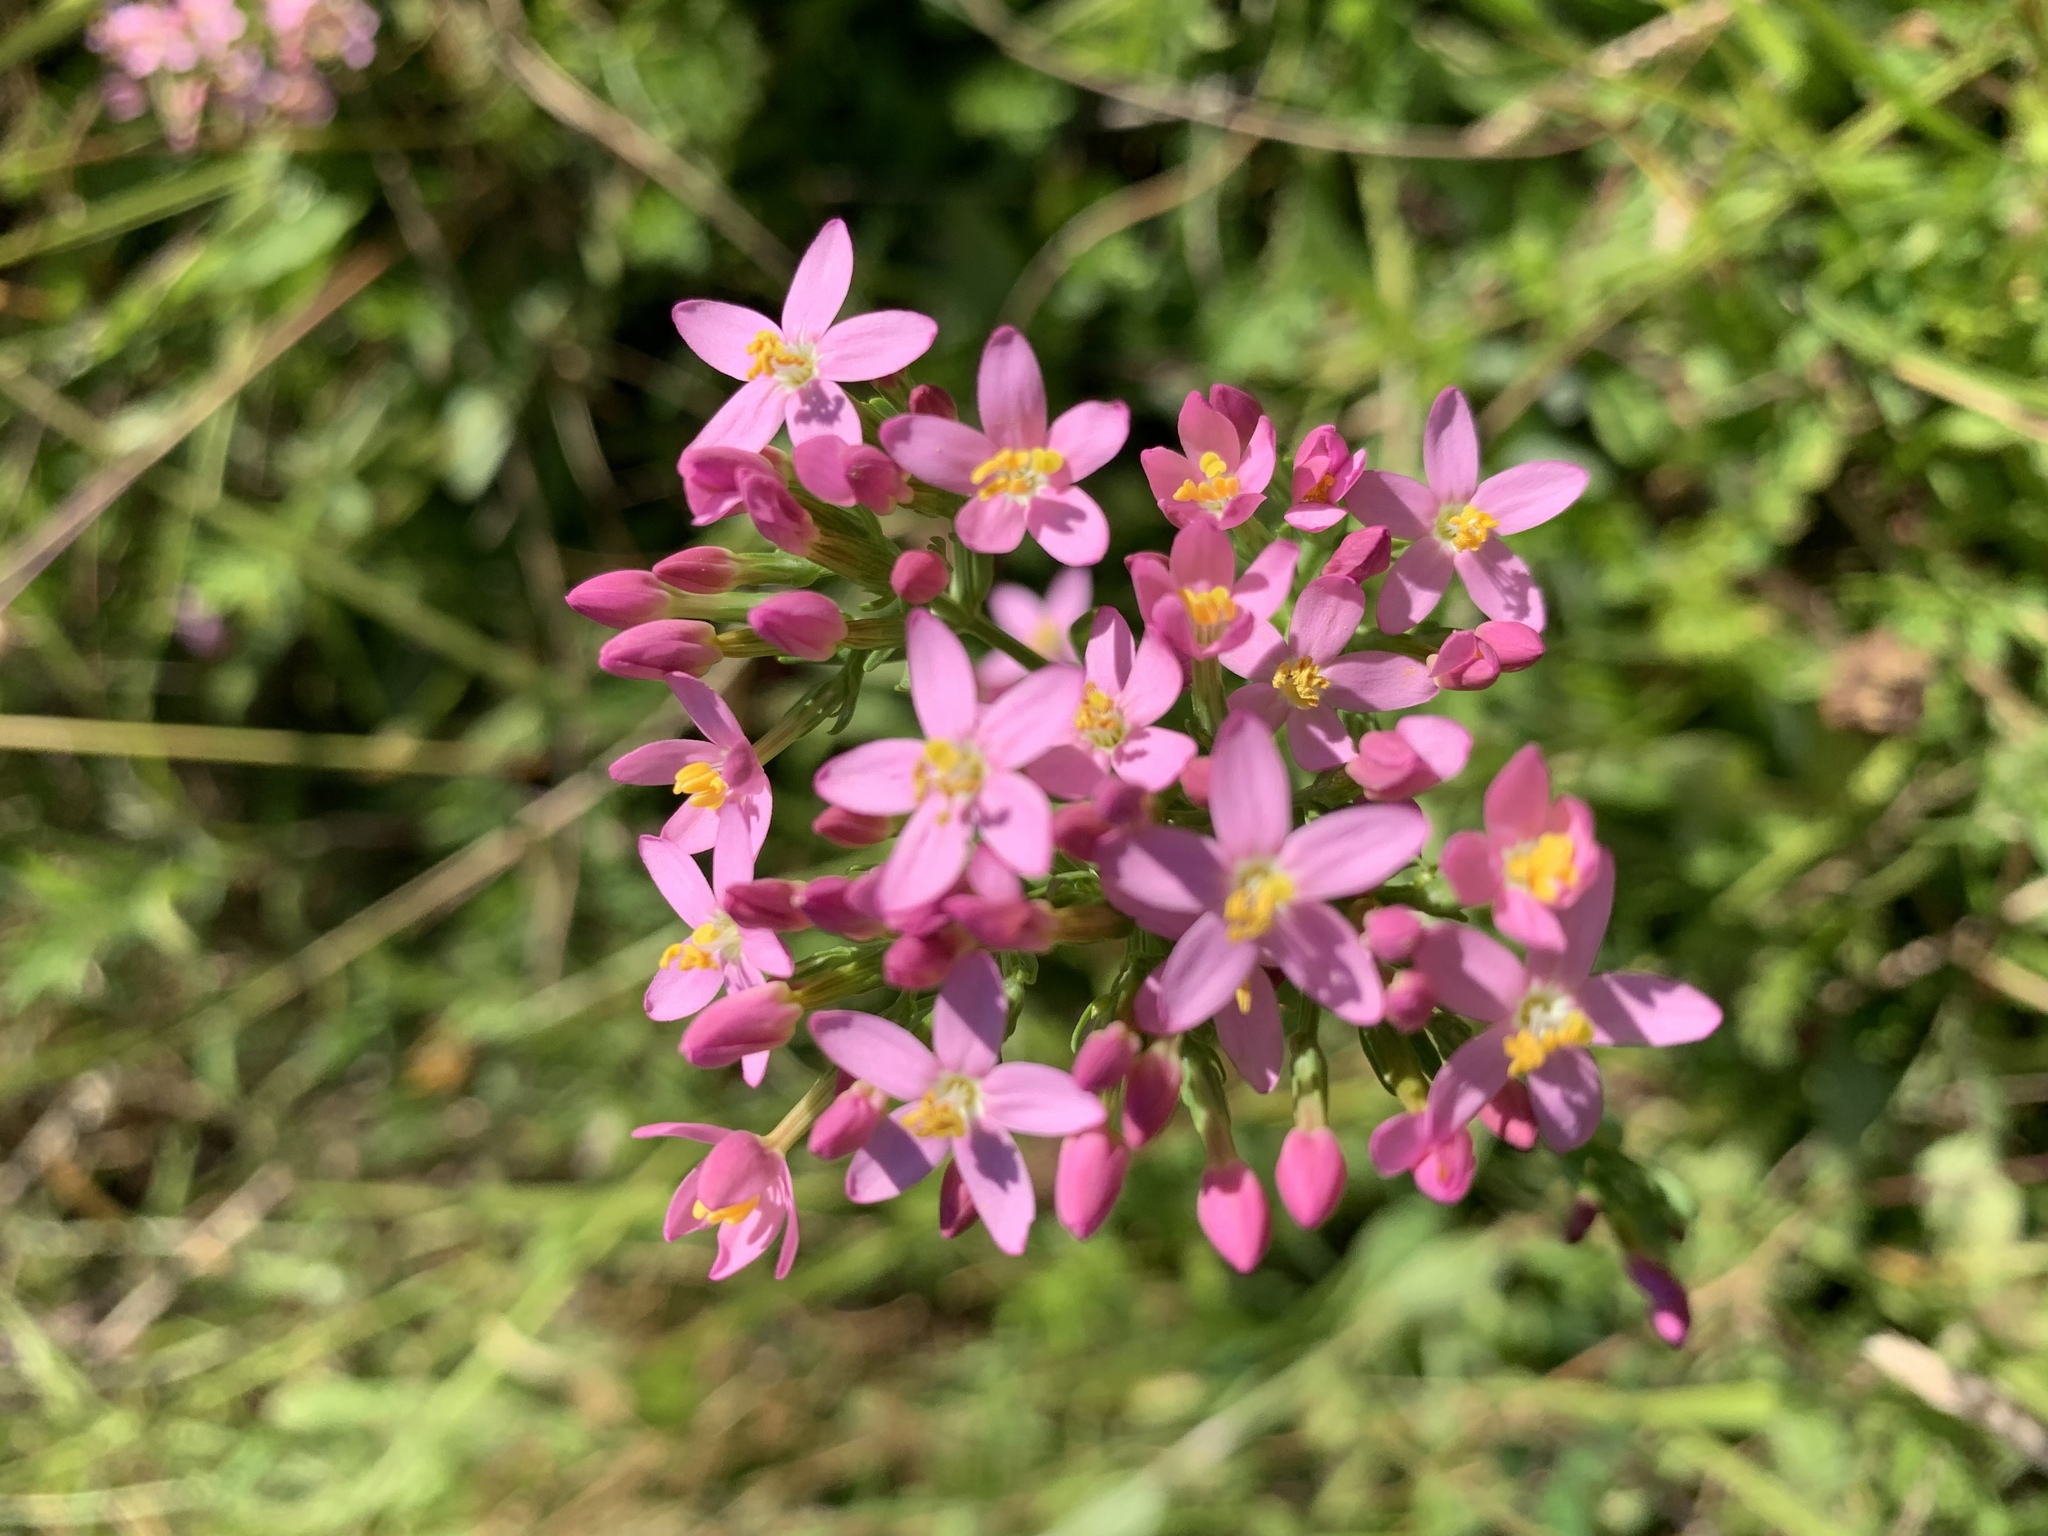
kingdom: Plantae
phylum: Tracheophyta
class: Magnoliopsida
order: Gentianales
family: Gentianaceae
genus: Centaurium
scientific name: Centaurium erythraea
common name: Common centaury
